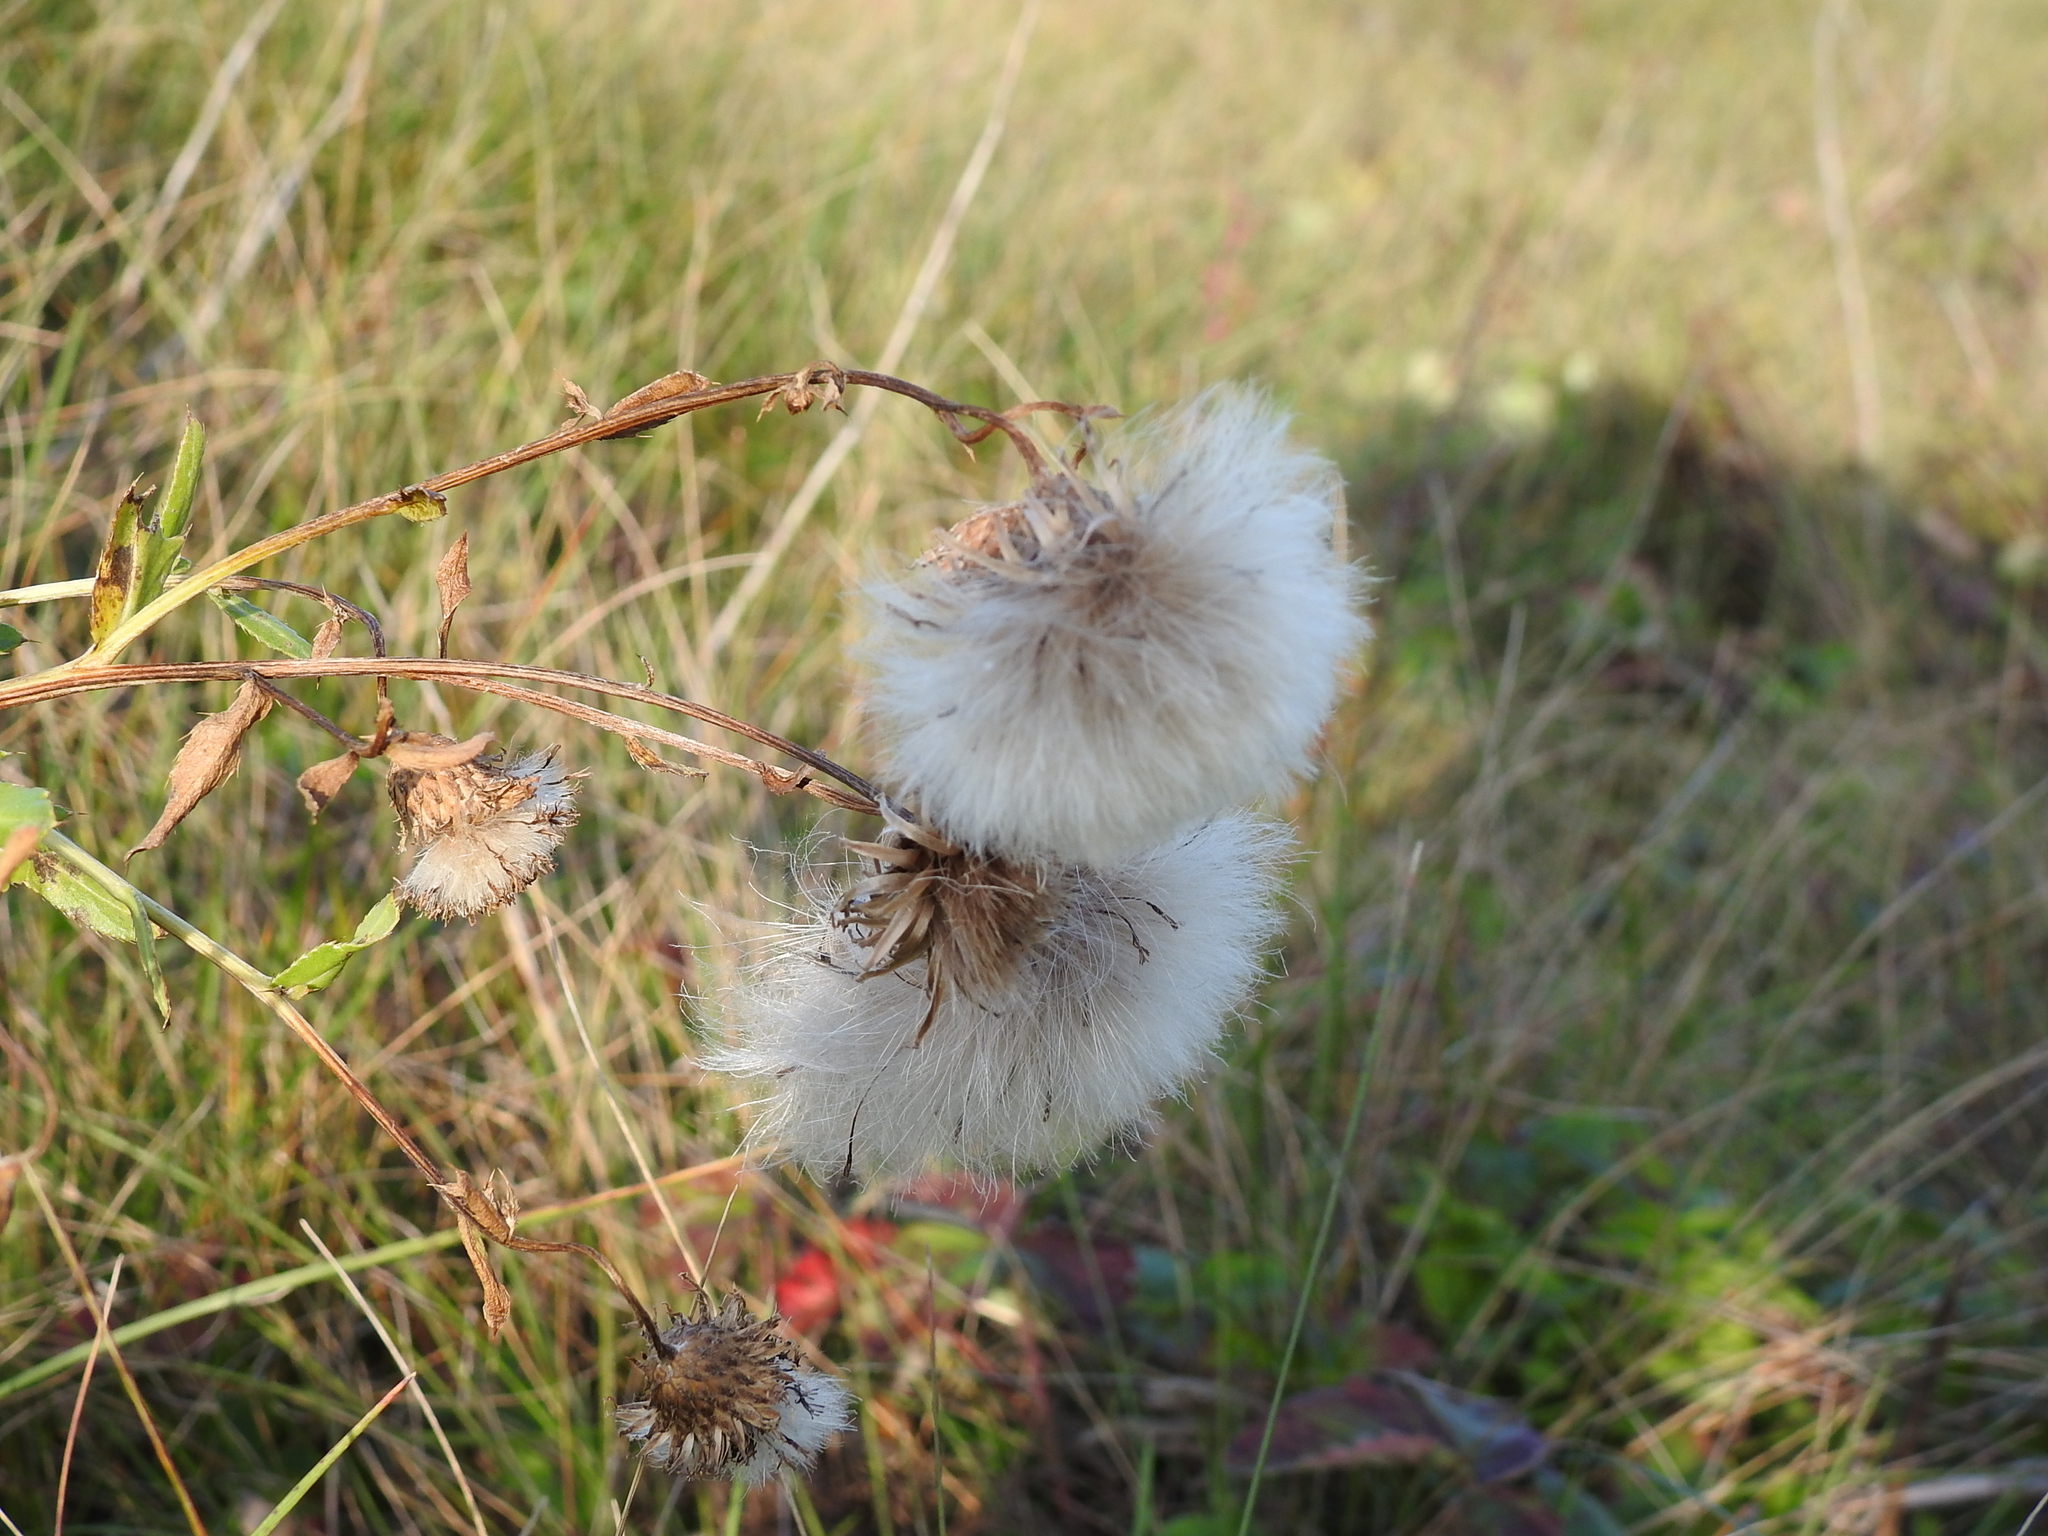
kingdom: Plantae
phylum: Tracheophyta
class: Magnoliopsida
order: Asterales
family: Asteraceae
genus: Cirsium
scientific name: Cirsium arvense
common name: Creeping thistle
